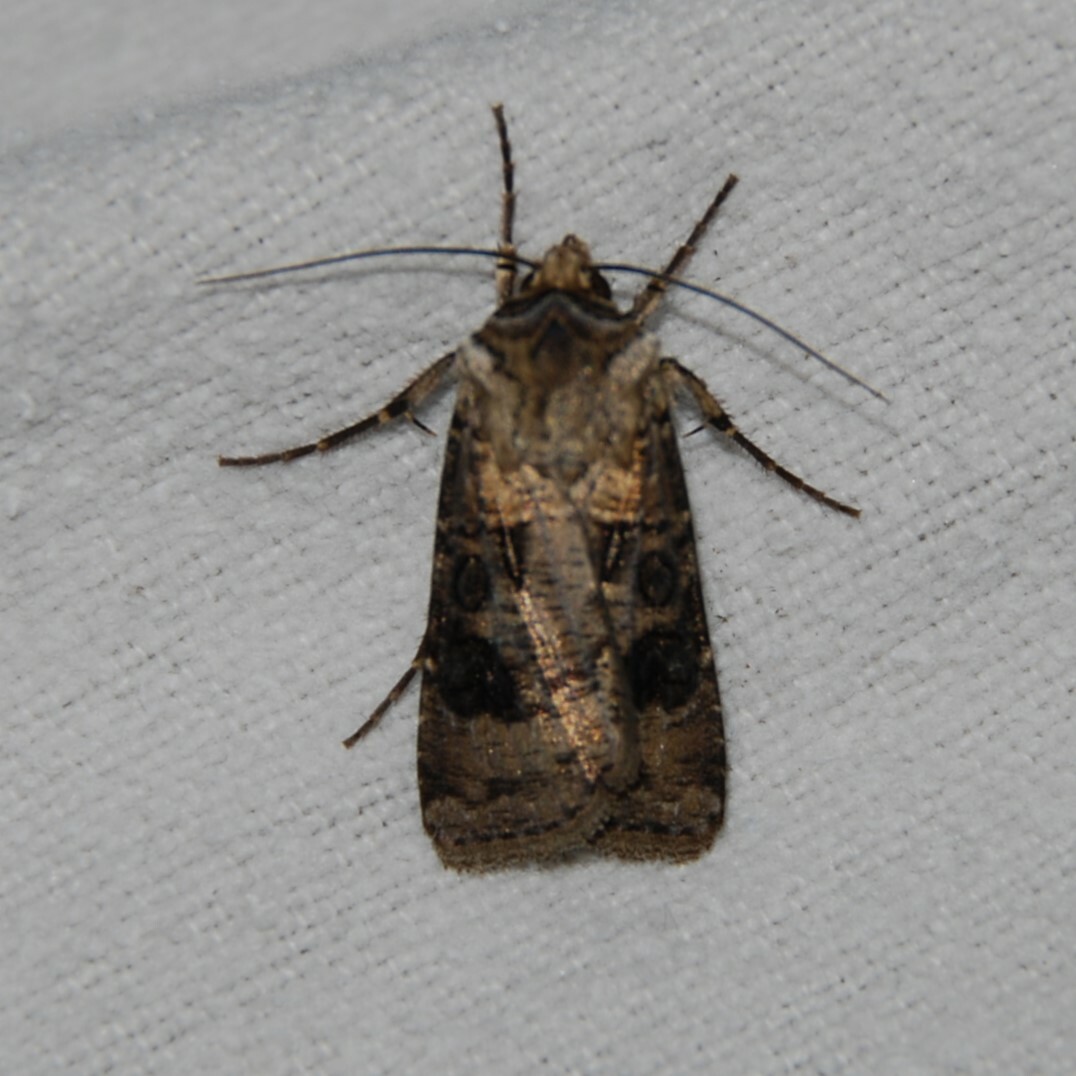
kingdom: Animalia
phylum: Arthropoda
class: Insecta
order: Lepidoptera
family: Noctuidae
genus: Agrotis
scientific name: Agrotis clavis
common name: Heart and club
